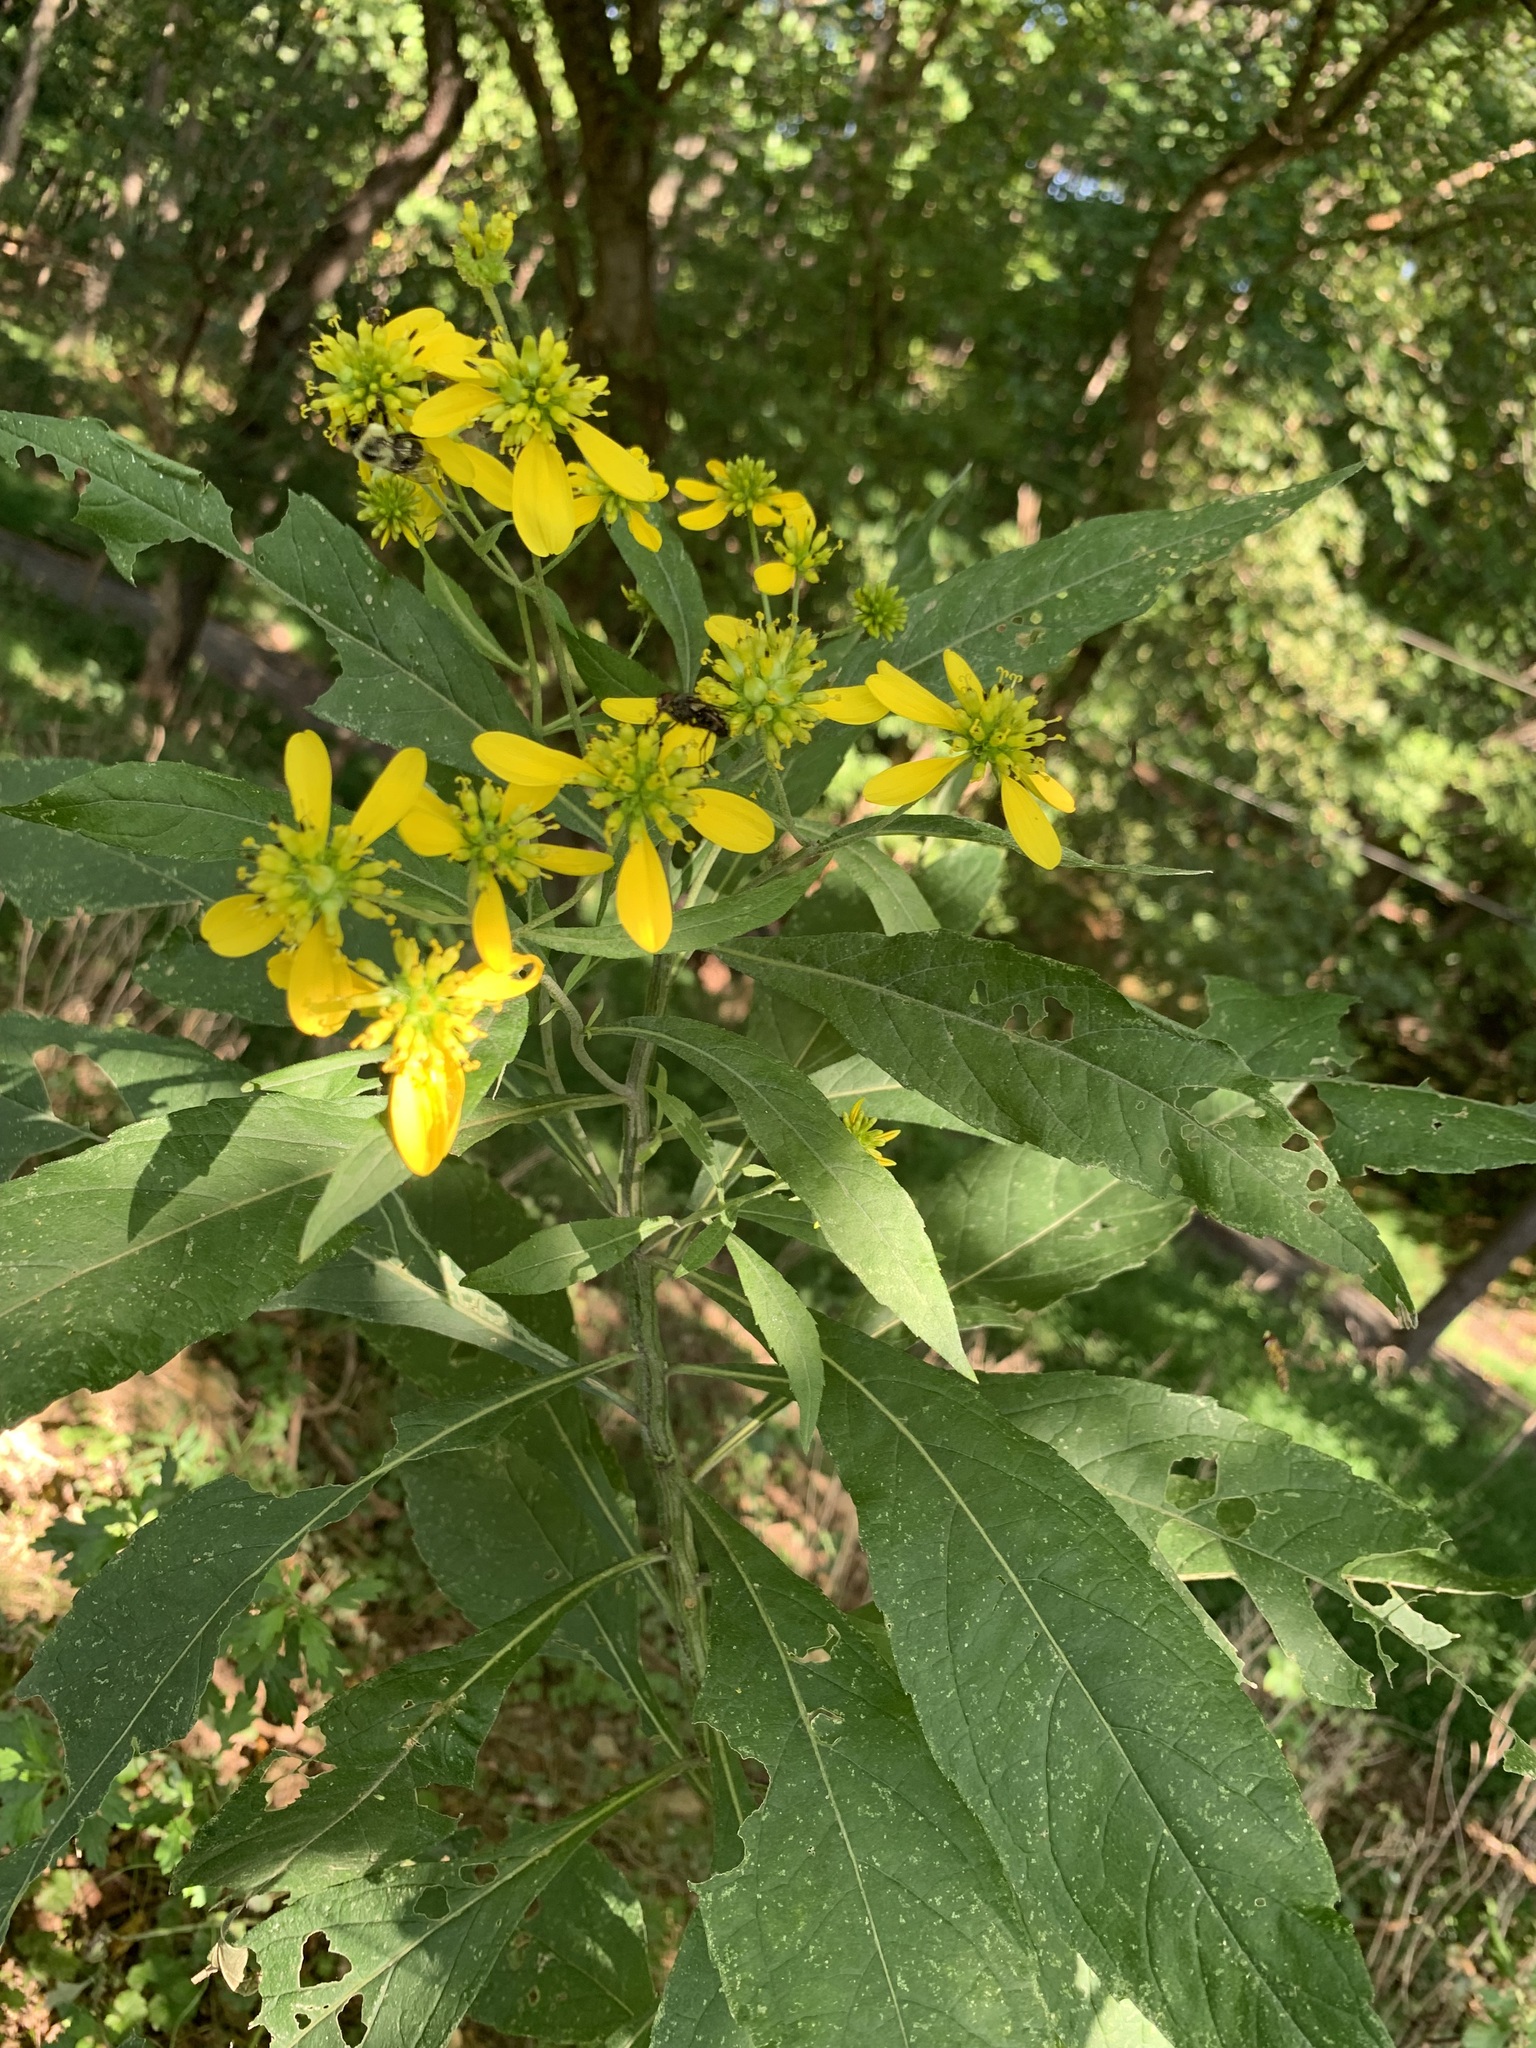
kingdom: Plantae
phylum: Tracheophyta
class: Magnoliopsida
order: Asterales
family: Asteraceae
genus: Verbesina
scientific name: Verbesina alternifolia
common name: Wingstem
